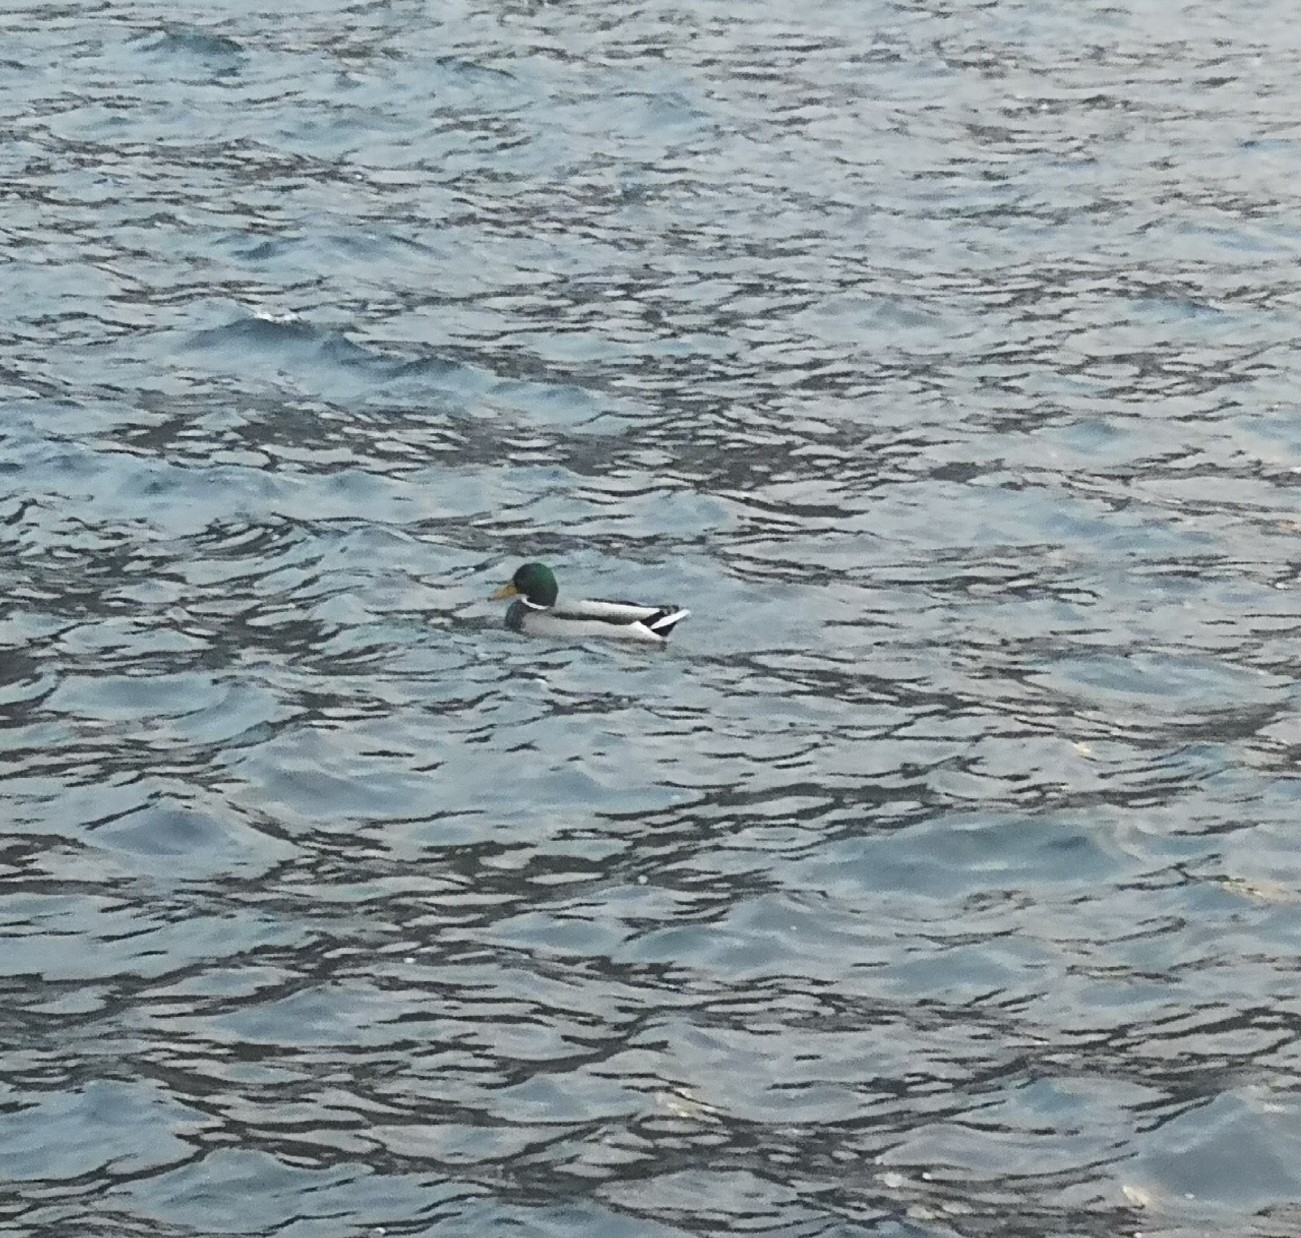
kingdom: Animalia
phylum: Chordata
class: Aves
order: Anseriformes
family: Anatidae
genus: Anas
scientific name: Anas platyrhynchos
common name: Mallard
